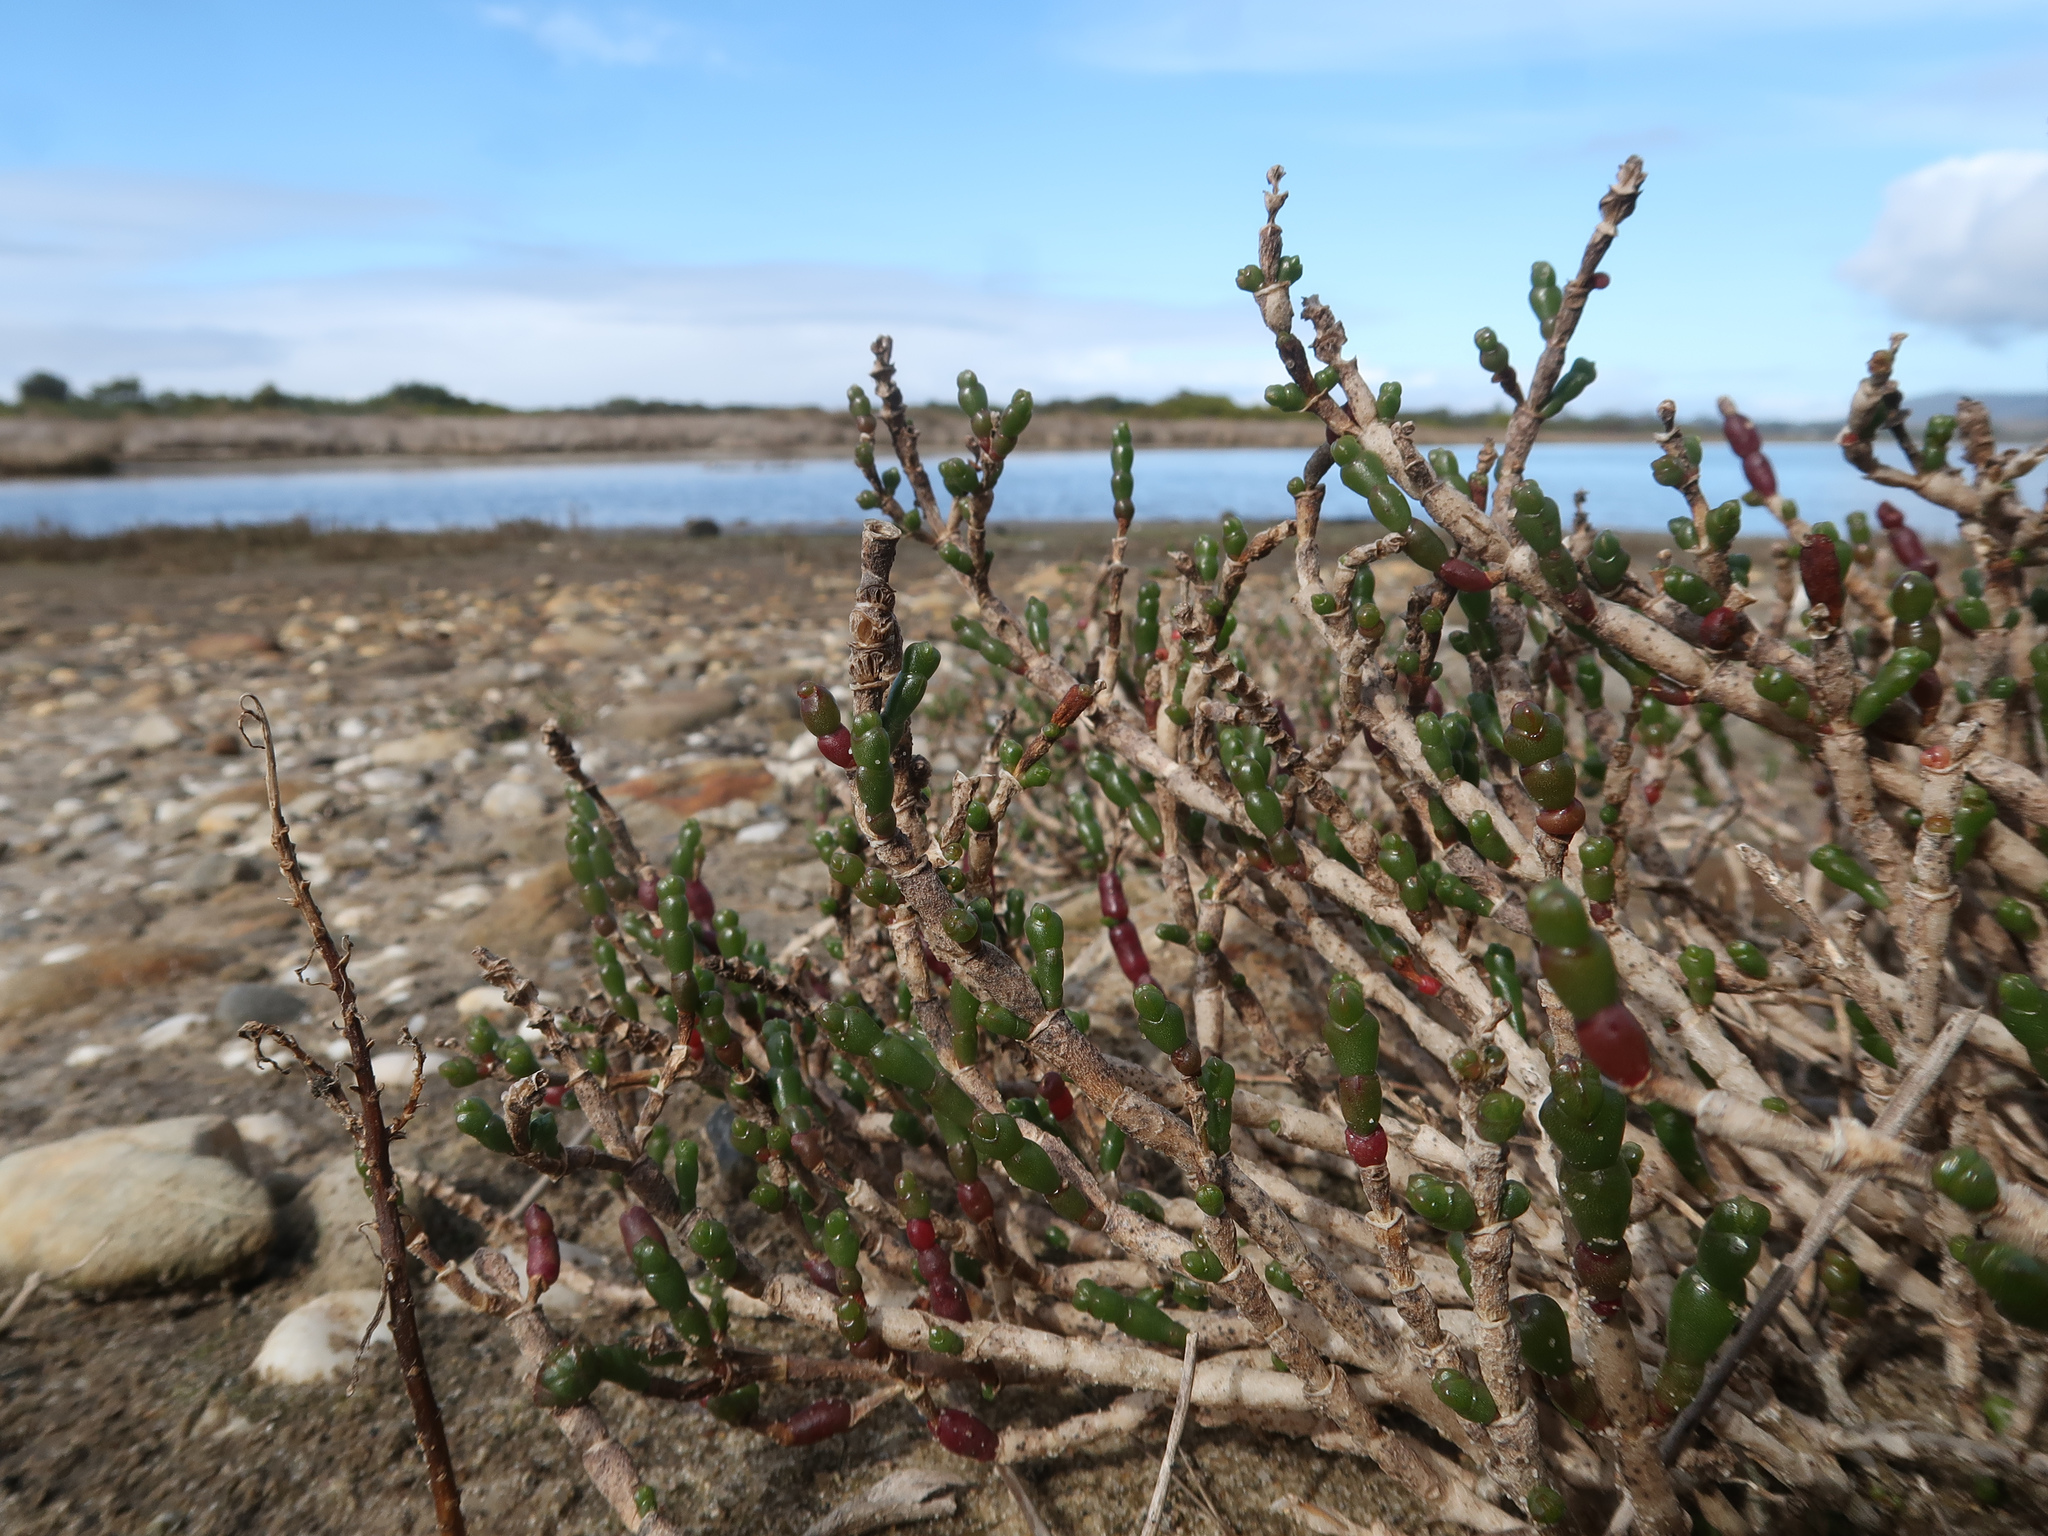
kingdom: Plantae
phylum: Tracheophyta
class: Magnoliopsida
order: Caryophyllales
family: Amaranthaceae
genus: Salicornia
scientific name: Salicornia quinqueflora
